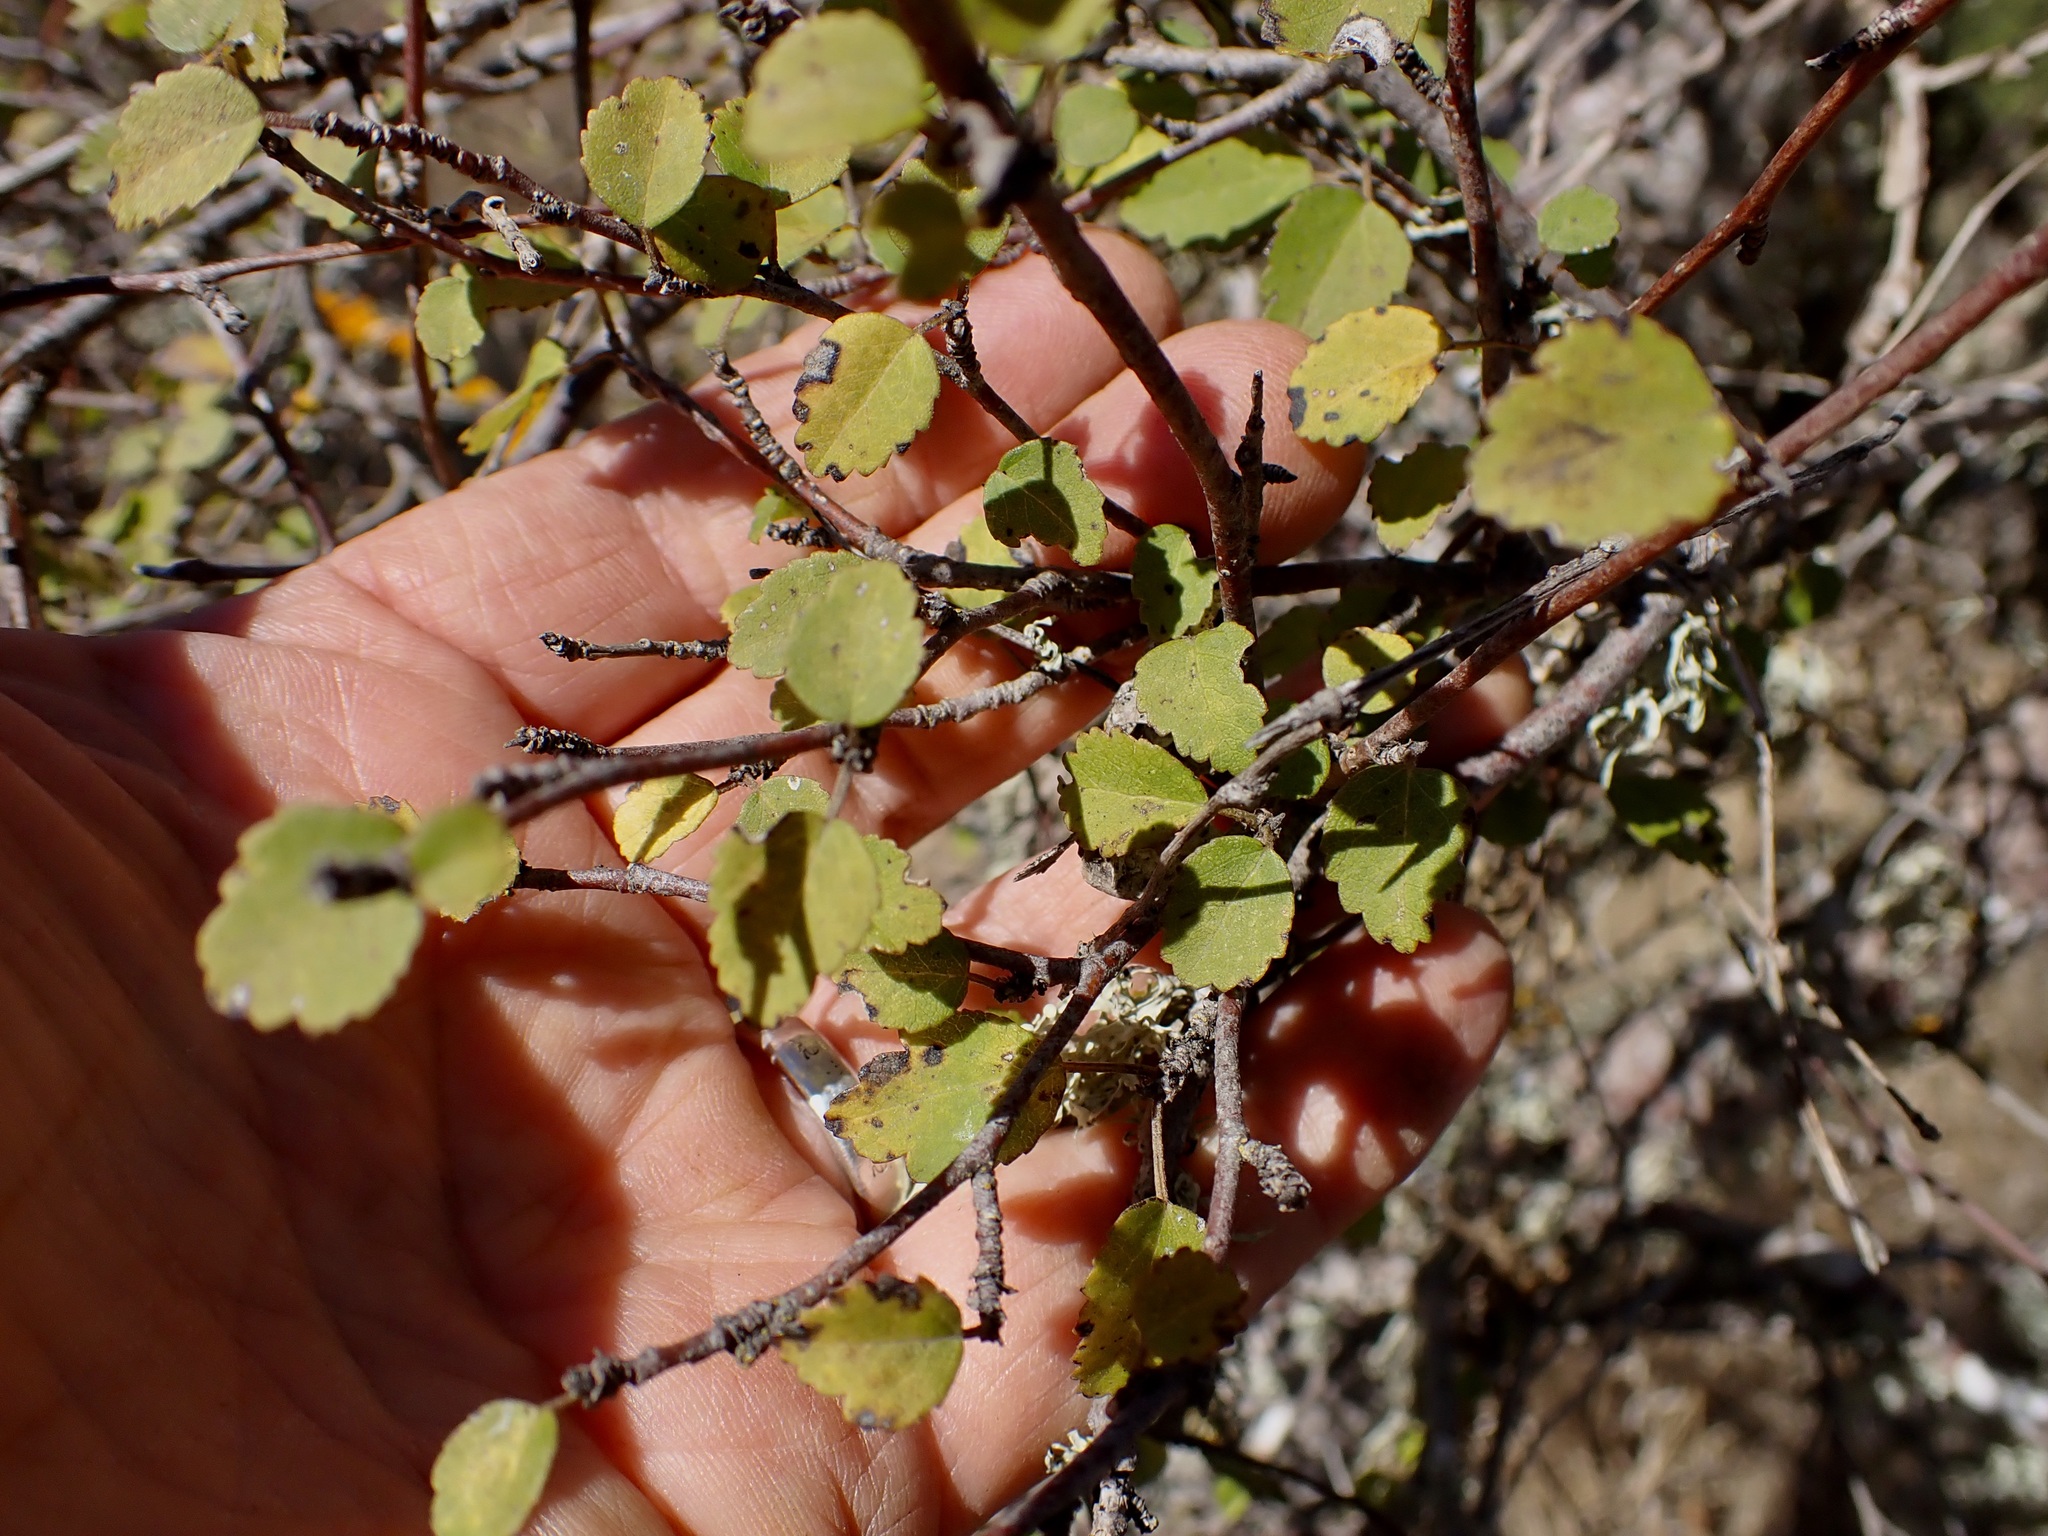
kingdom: Plantae
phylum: Tracheophyta
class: Magnoliopsida
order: Malvales
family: Malvaceae
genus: Plagianthus
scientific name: Plagianthus regius
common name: Manatu
